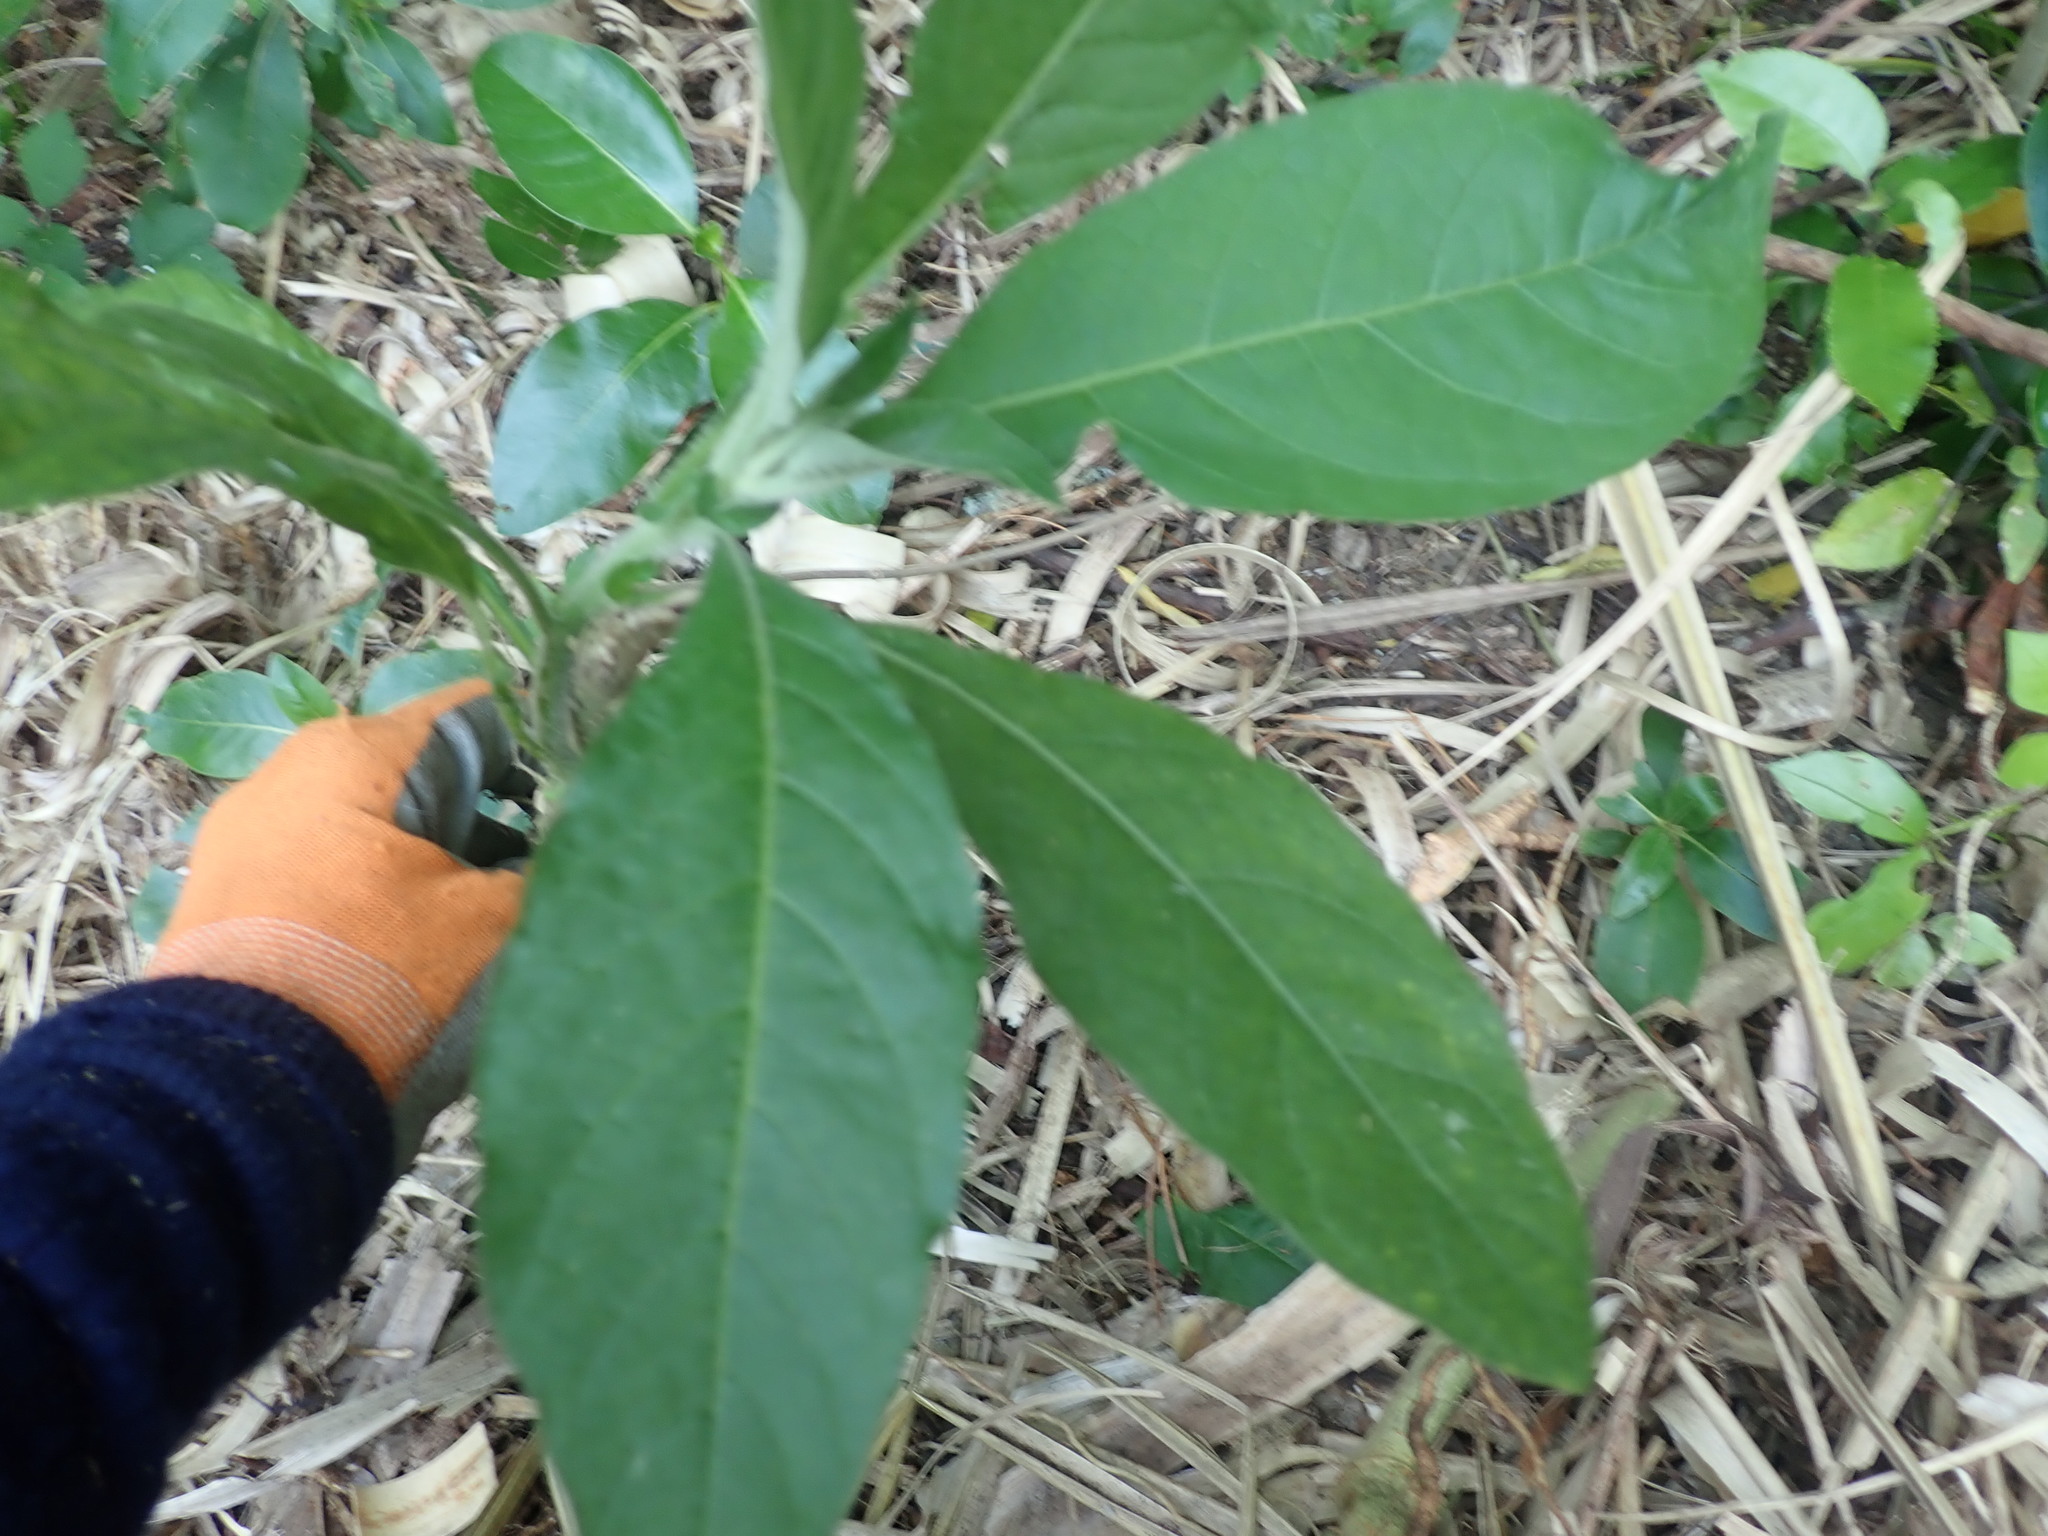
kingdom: Plantae
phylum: Tracheophyta
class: Magnoliopsida
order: Solanales
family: Solanaceae
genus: Solanum
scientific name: Solanum mauritianum
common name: Earleaf nightshade
